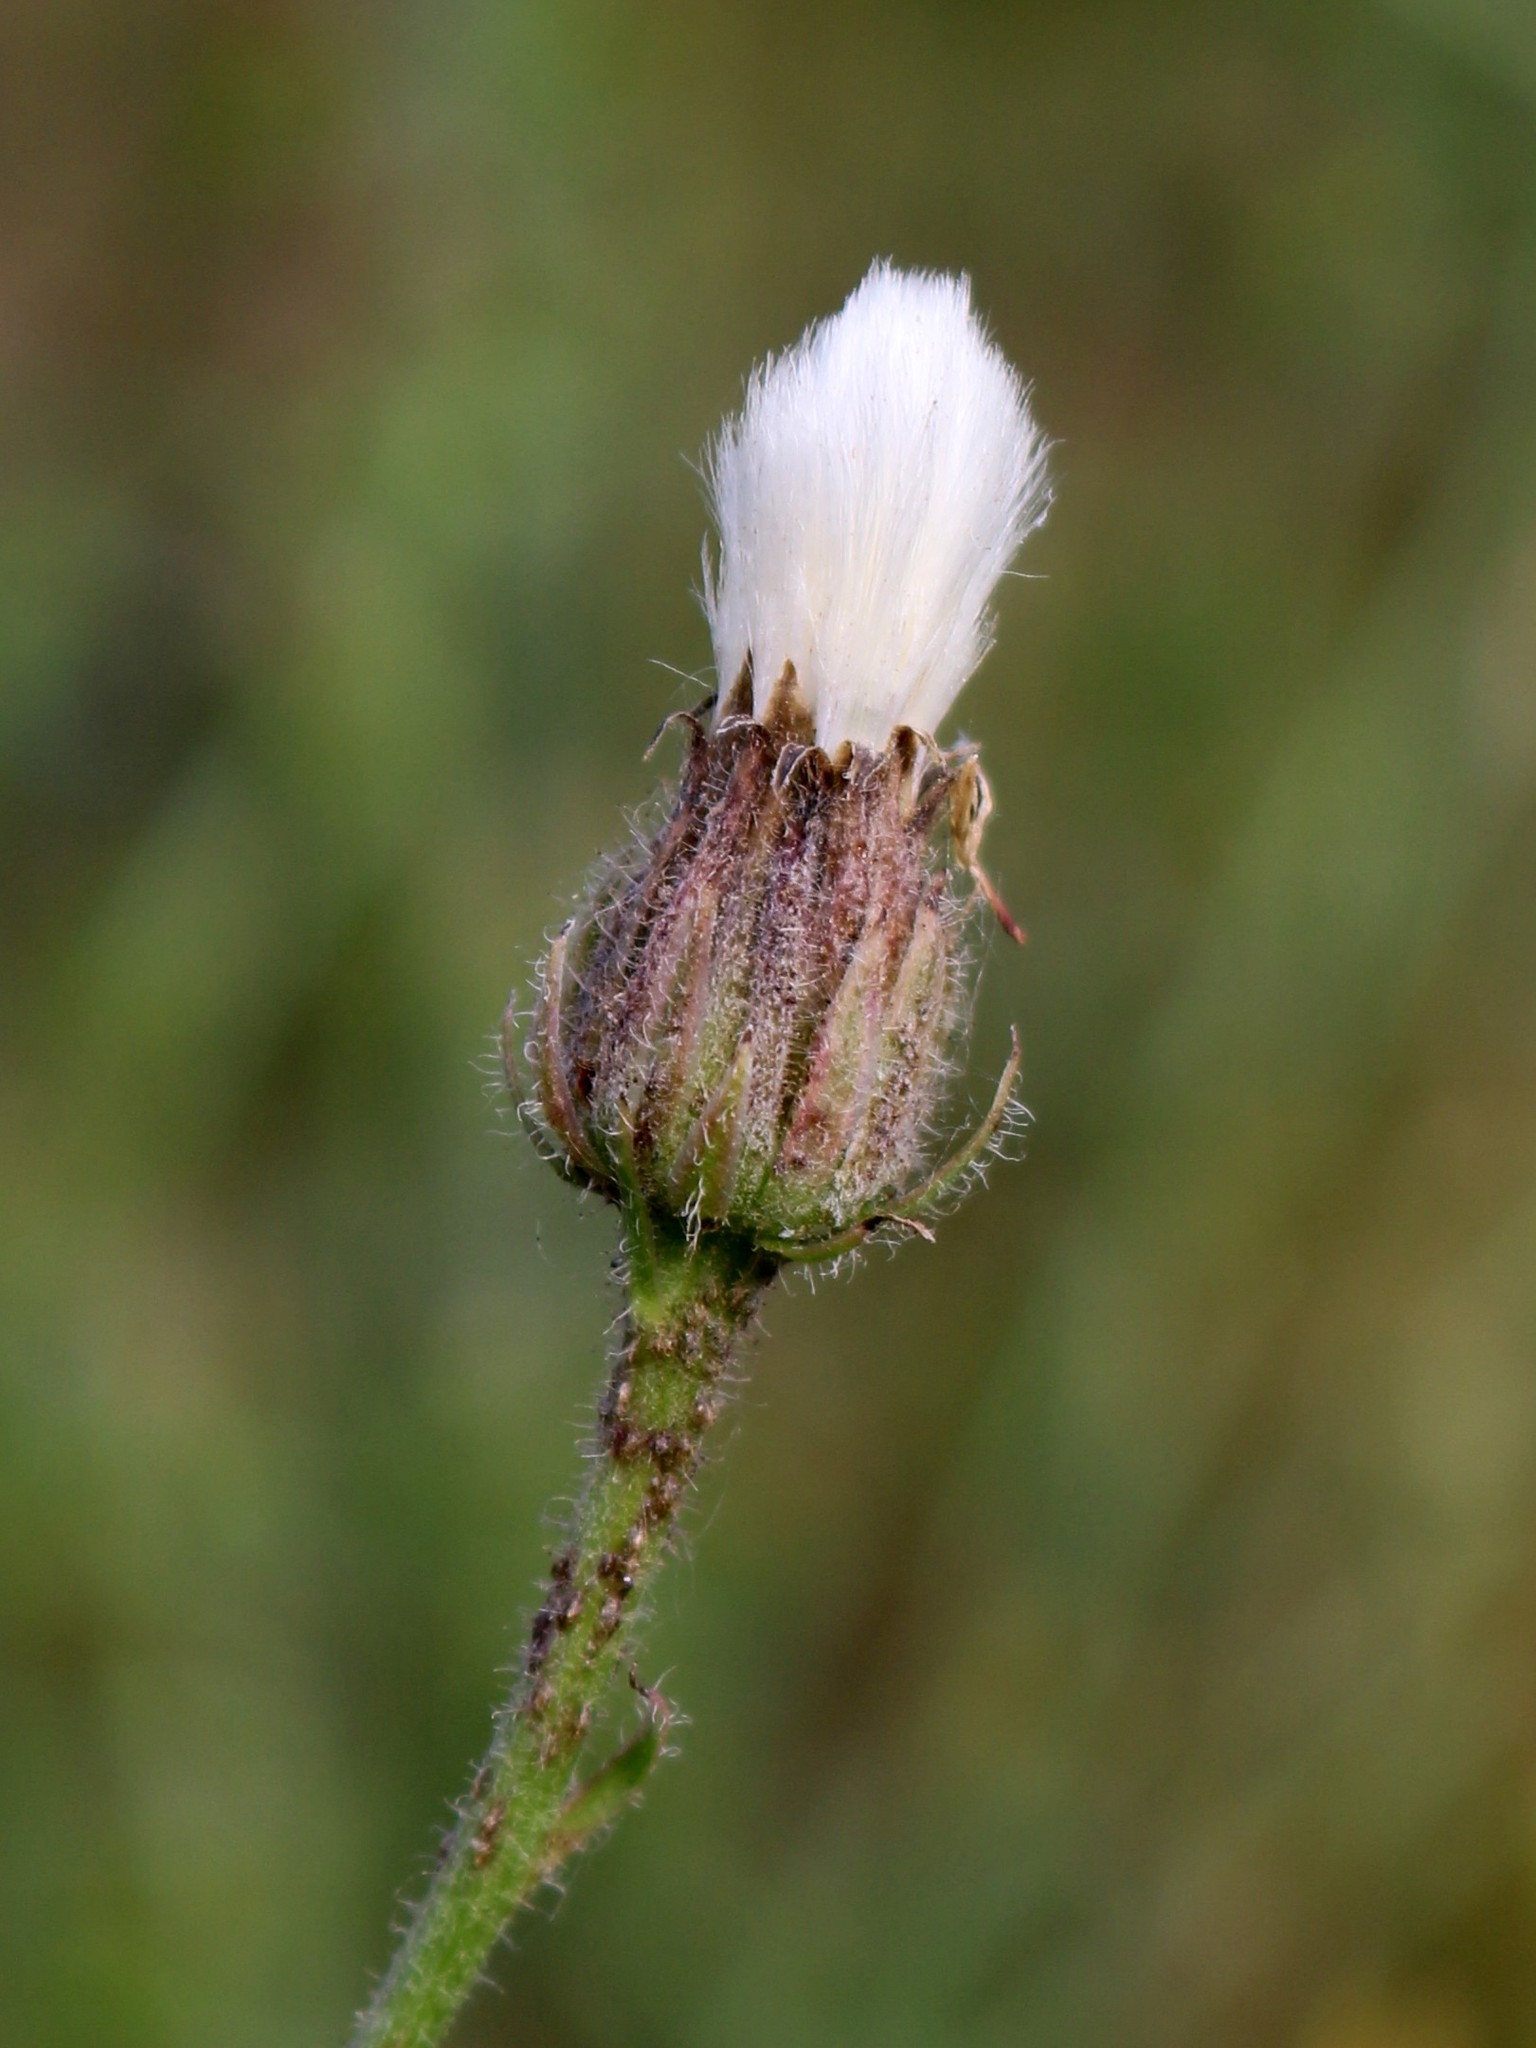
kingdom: Plantae
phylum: Tracheophyta
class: Magnoliopsida
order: Asterales
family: Asteraceae
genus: Crepis
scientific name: Crepis foetida
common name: Stinking hawk's-beard
